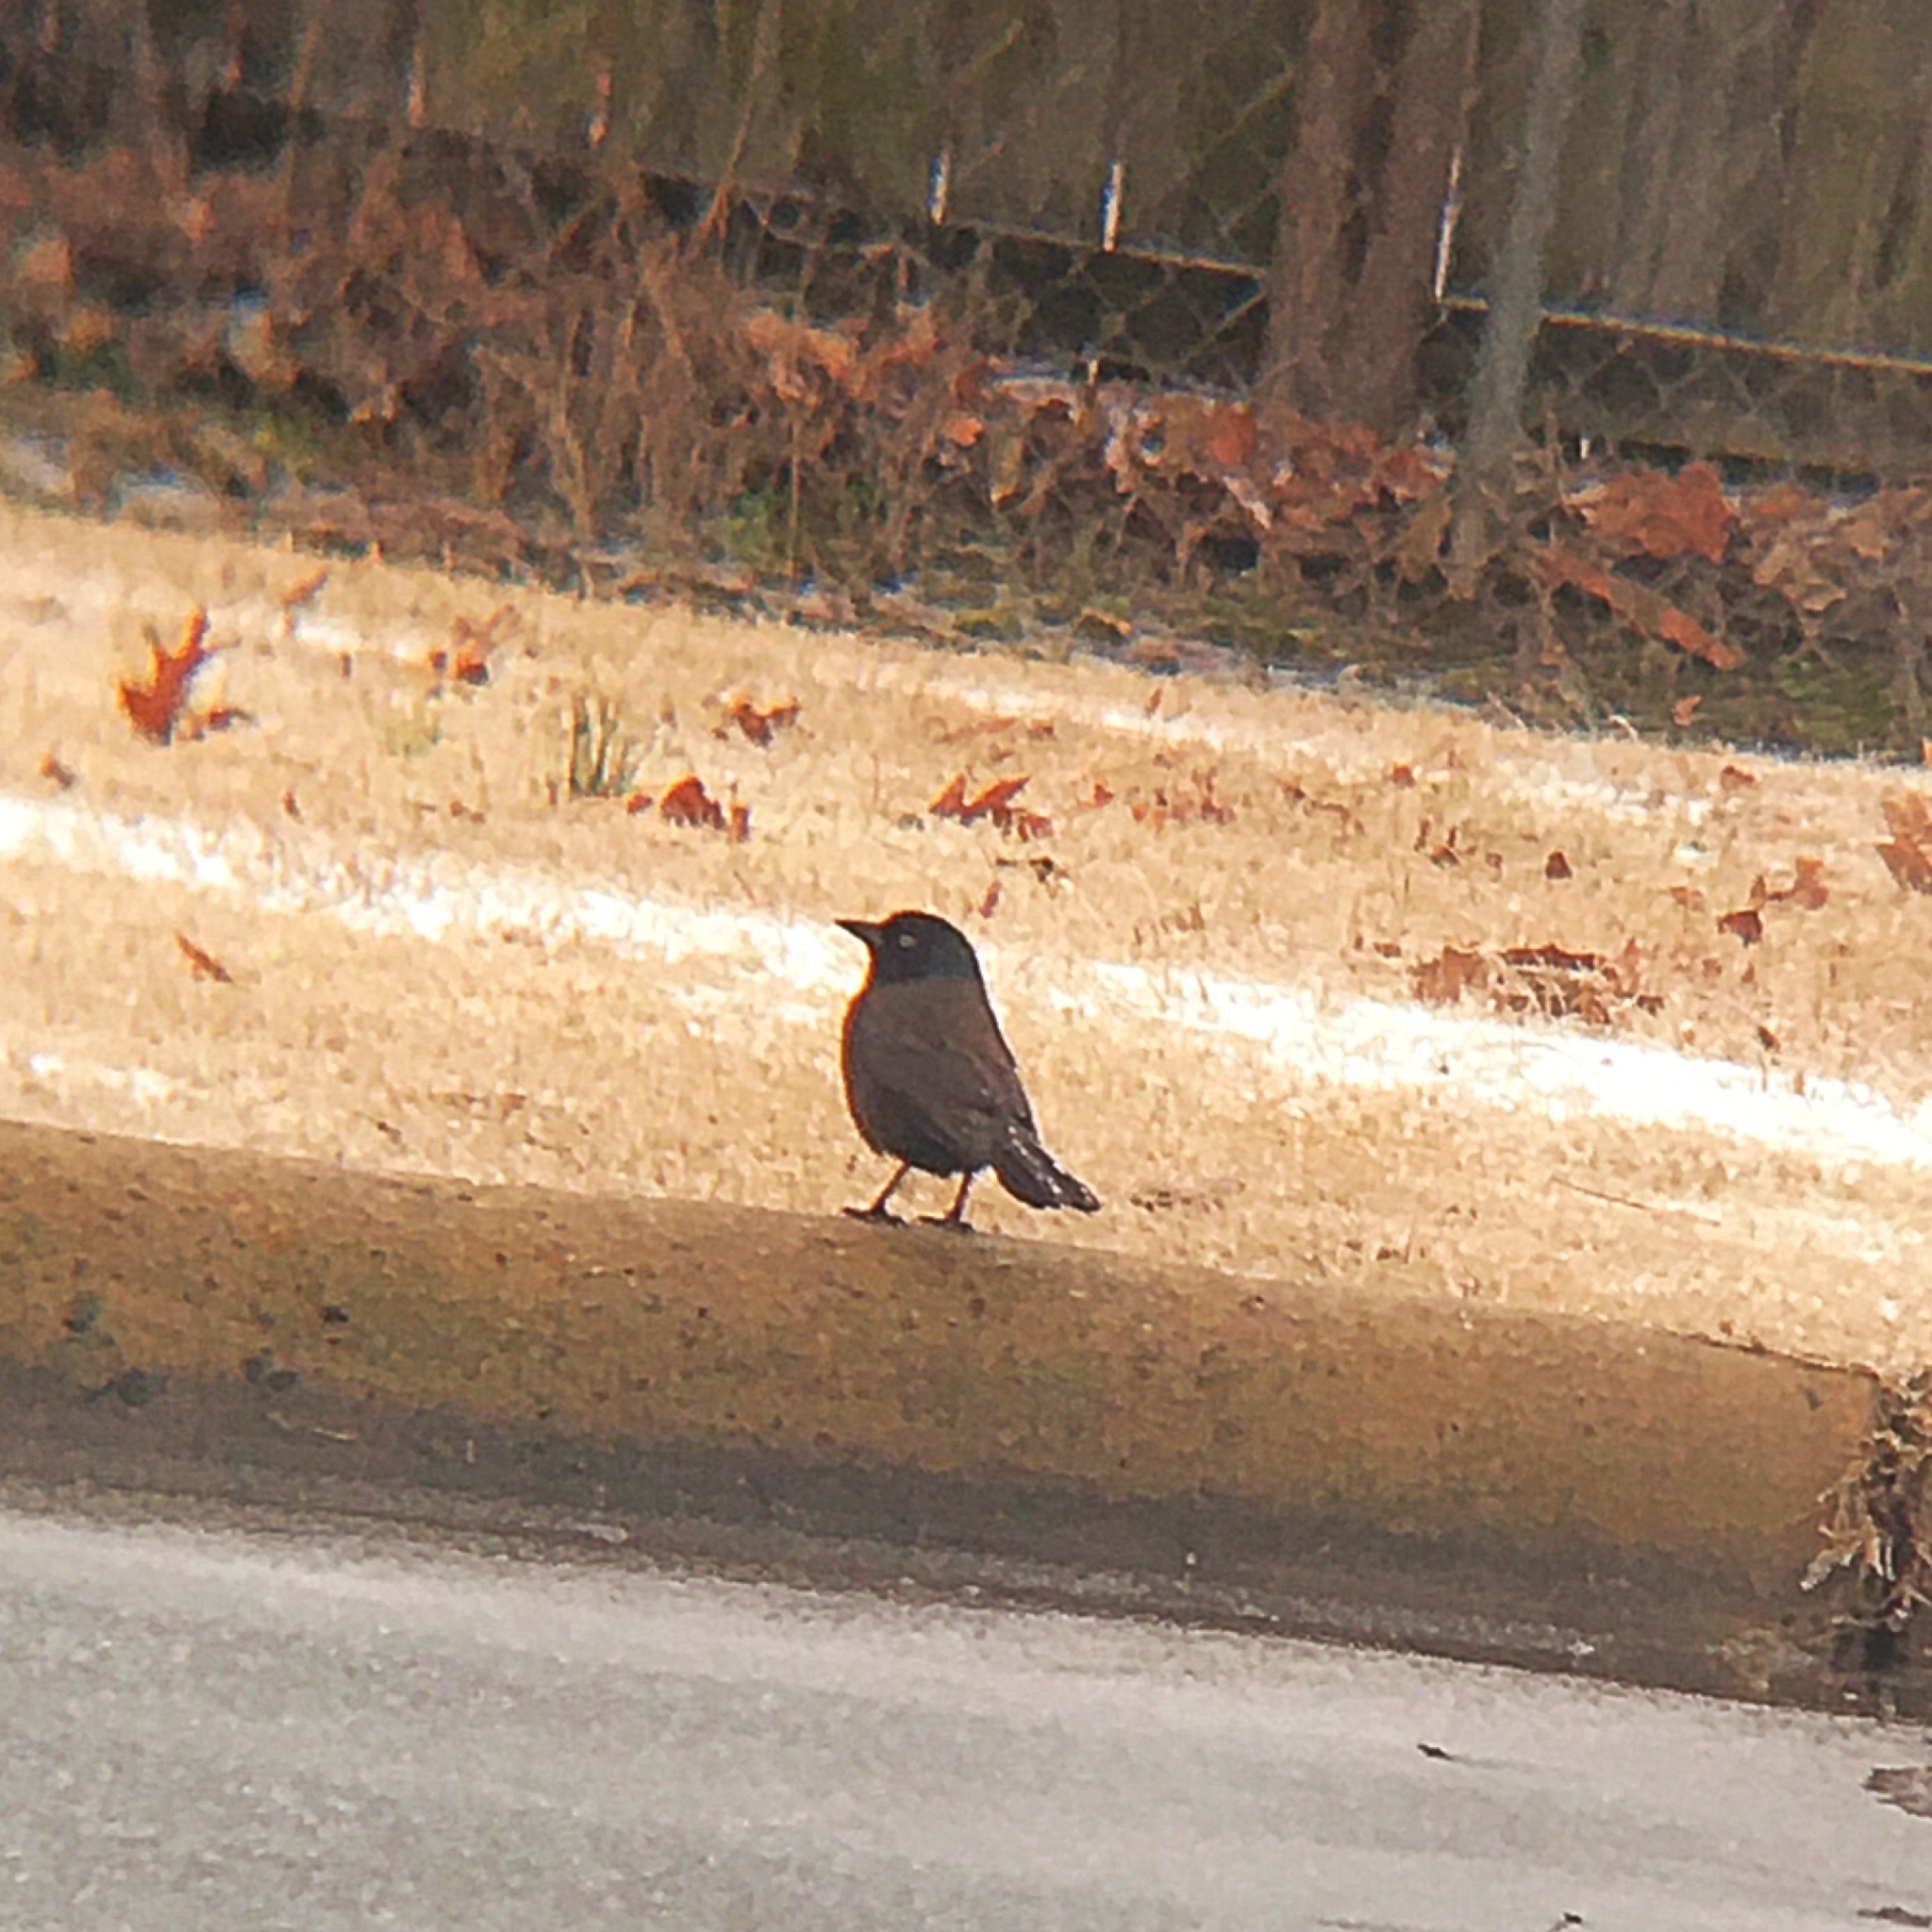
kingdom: Animalia
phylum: Chordata
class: Aves
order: Passeriformes
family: Icteridae
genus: Euphagus
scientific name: Euphagus cyanocephalus
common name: Brewer's blackbird
